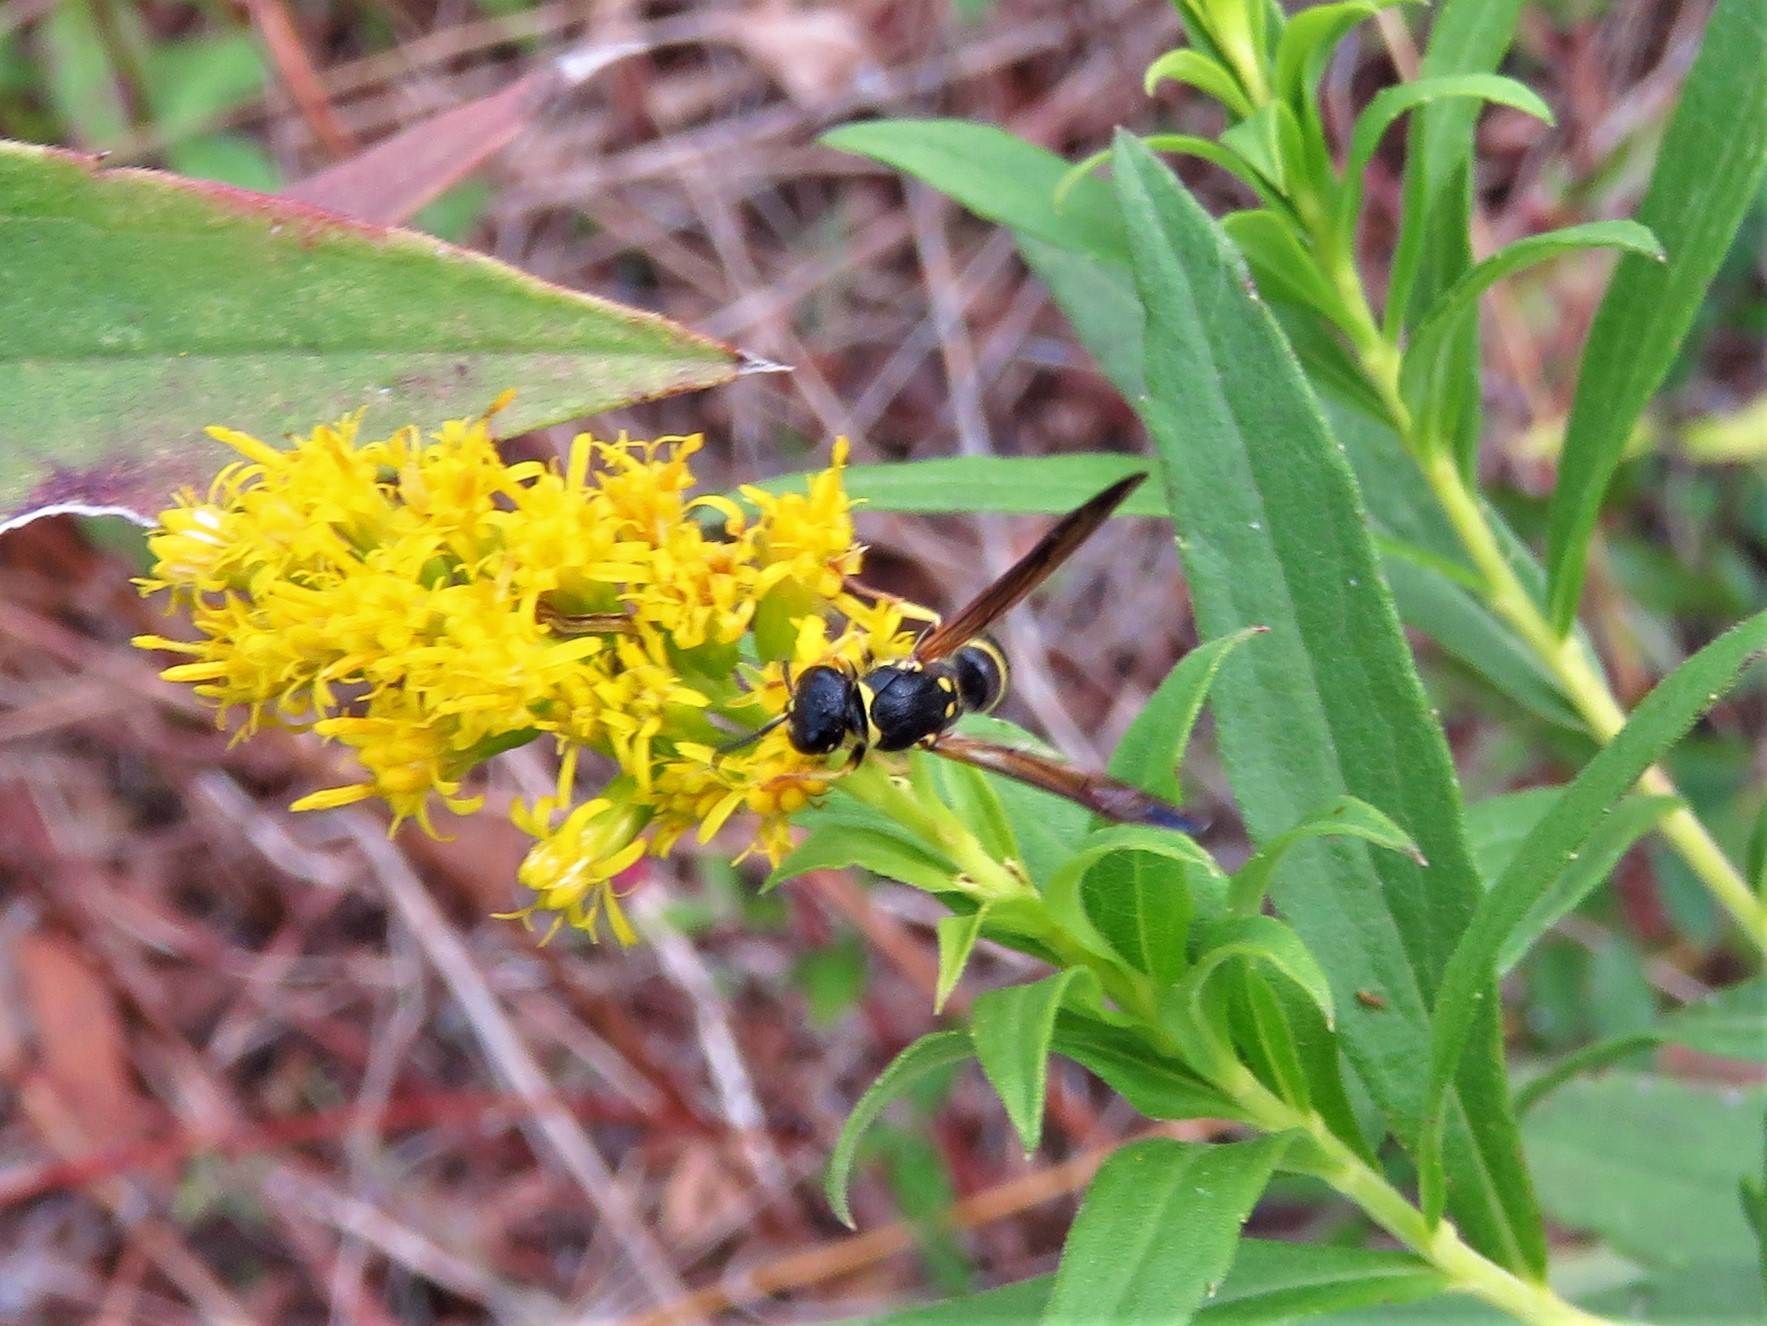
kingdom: Animalia
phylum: Arthropoda
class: Insecta
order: Hymenoptera
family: Vespidae
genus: Ancistrocerus
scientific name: Ancistrocerus adiabatus
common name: Bramble mason wasp
